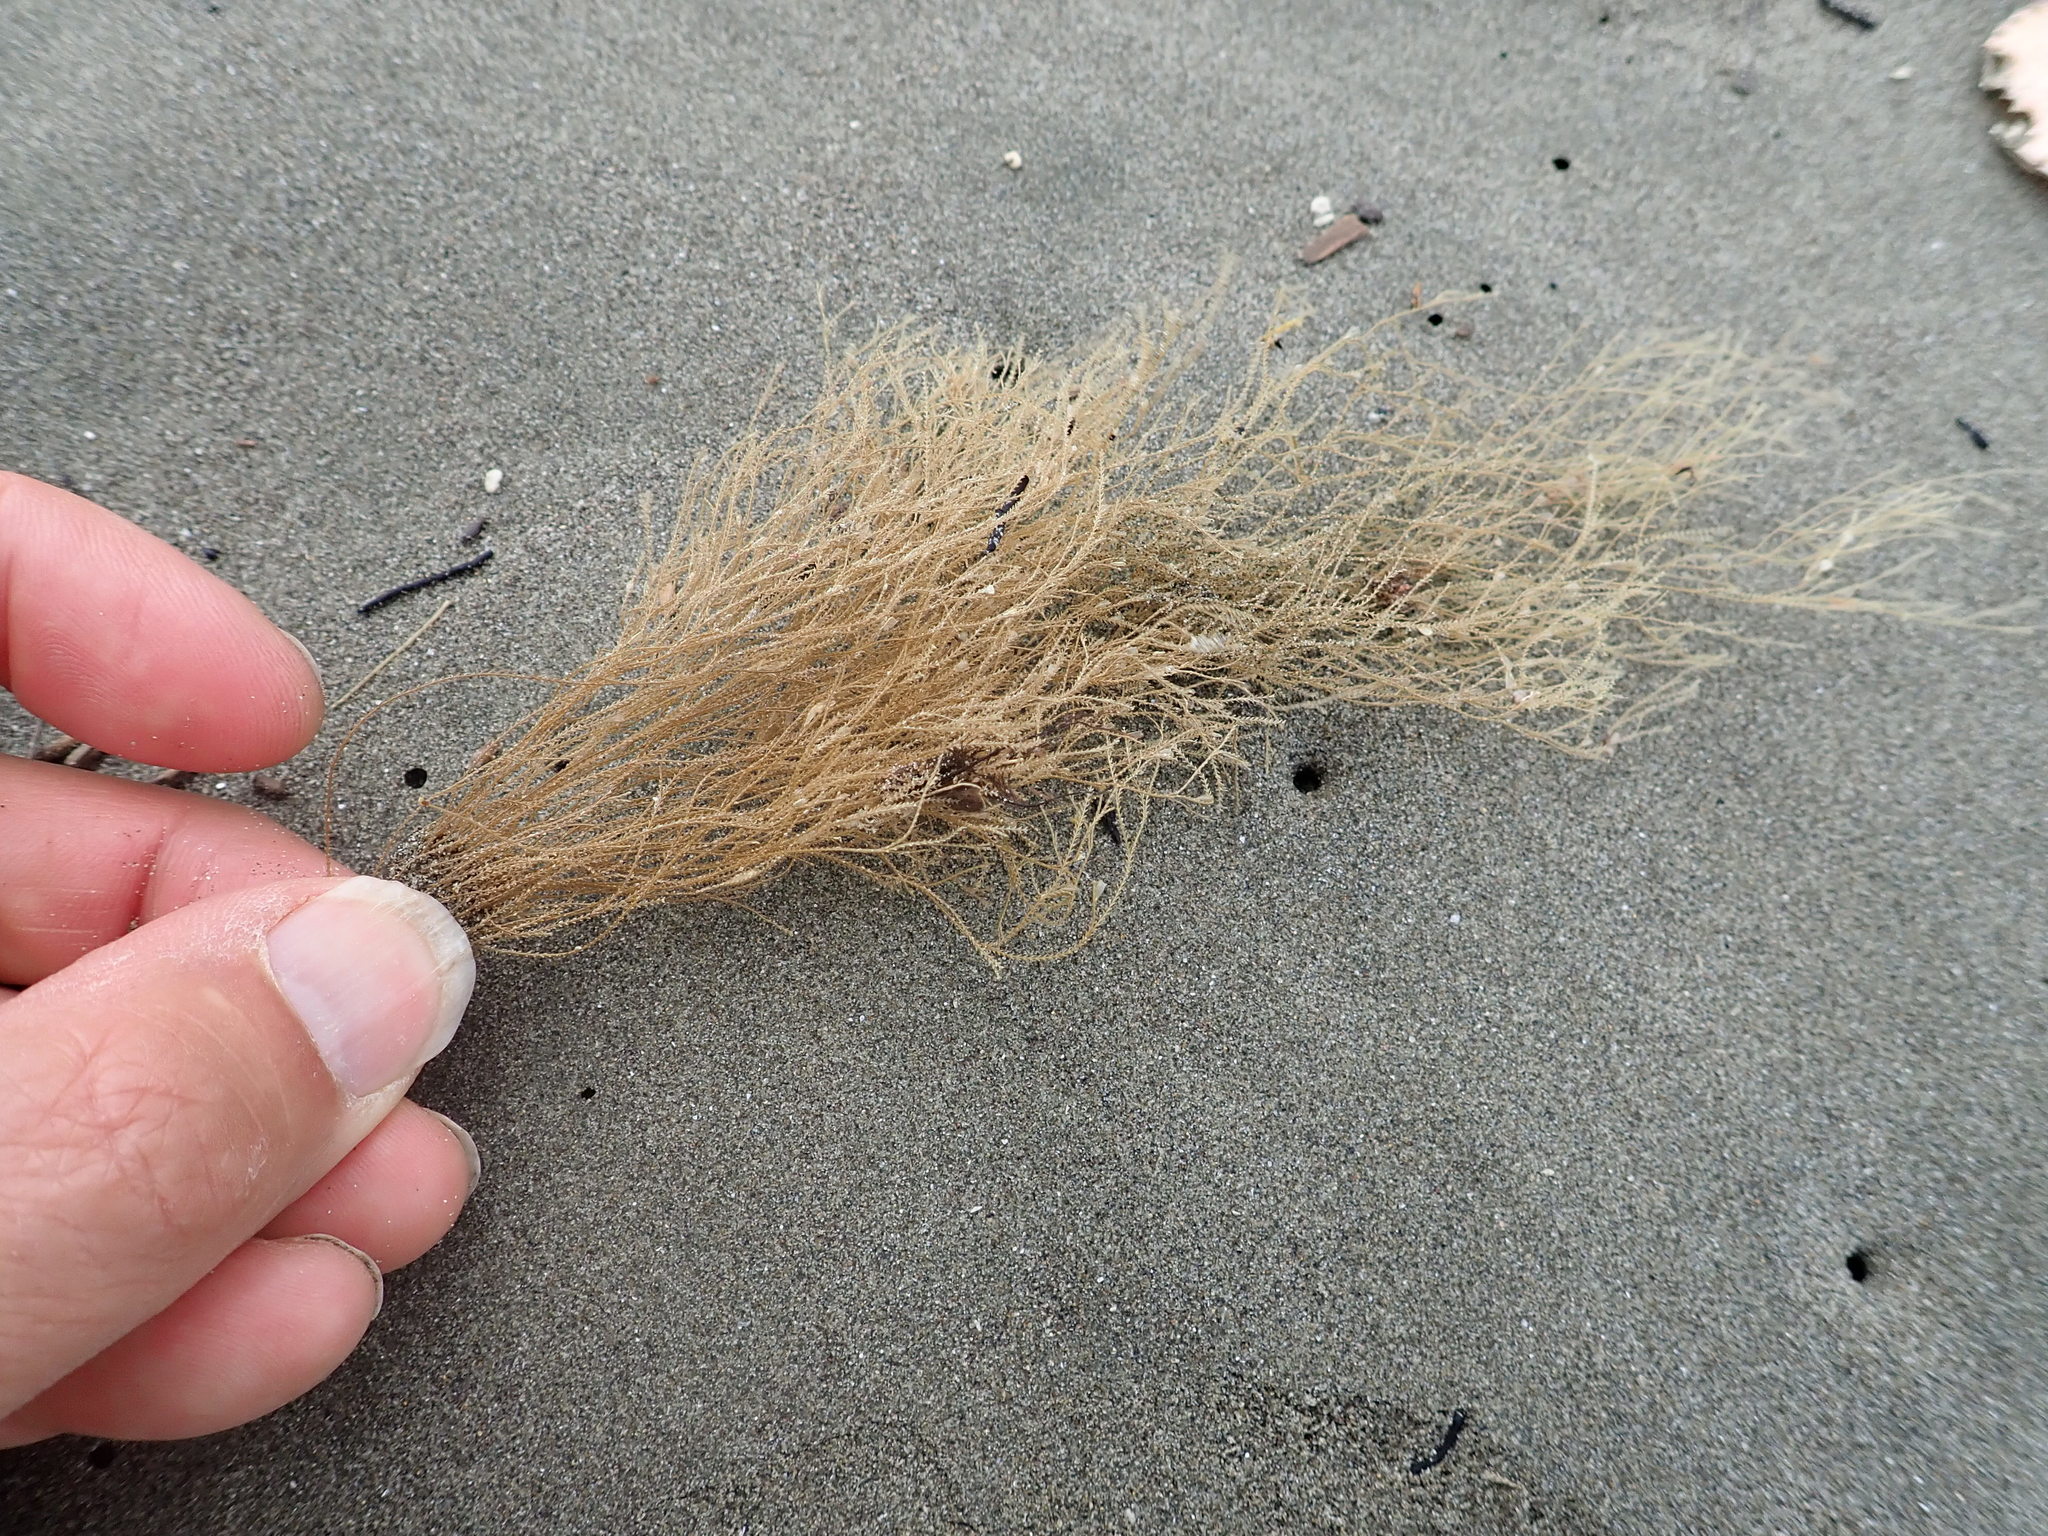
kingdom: Animalia
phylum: Cnidaria
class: Hydrozoa
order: Leptothecata
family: Sertulariidae
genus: Amphisbetia
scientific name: Amphisbetia bispinosa
